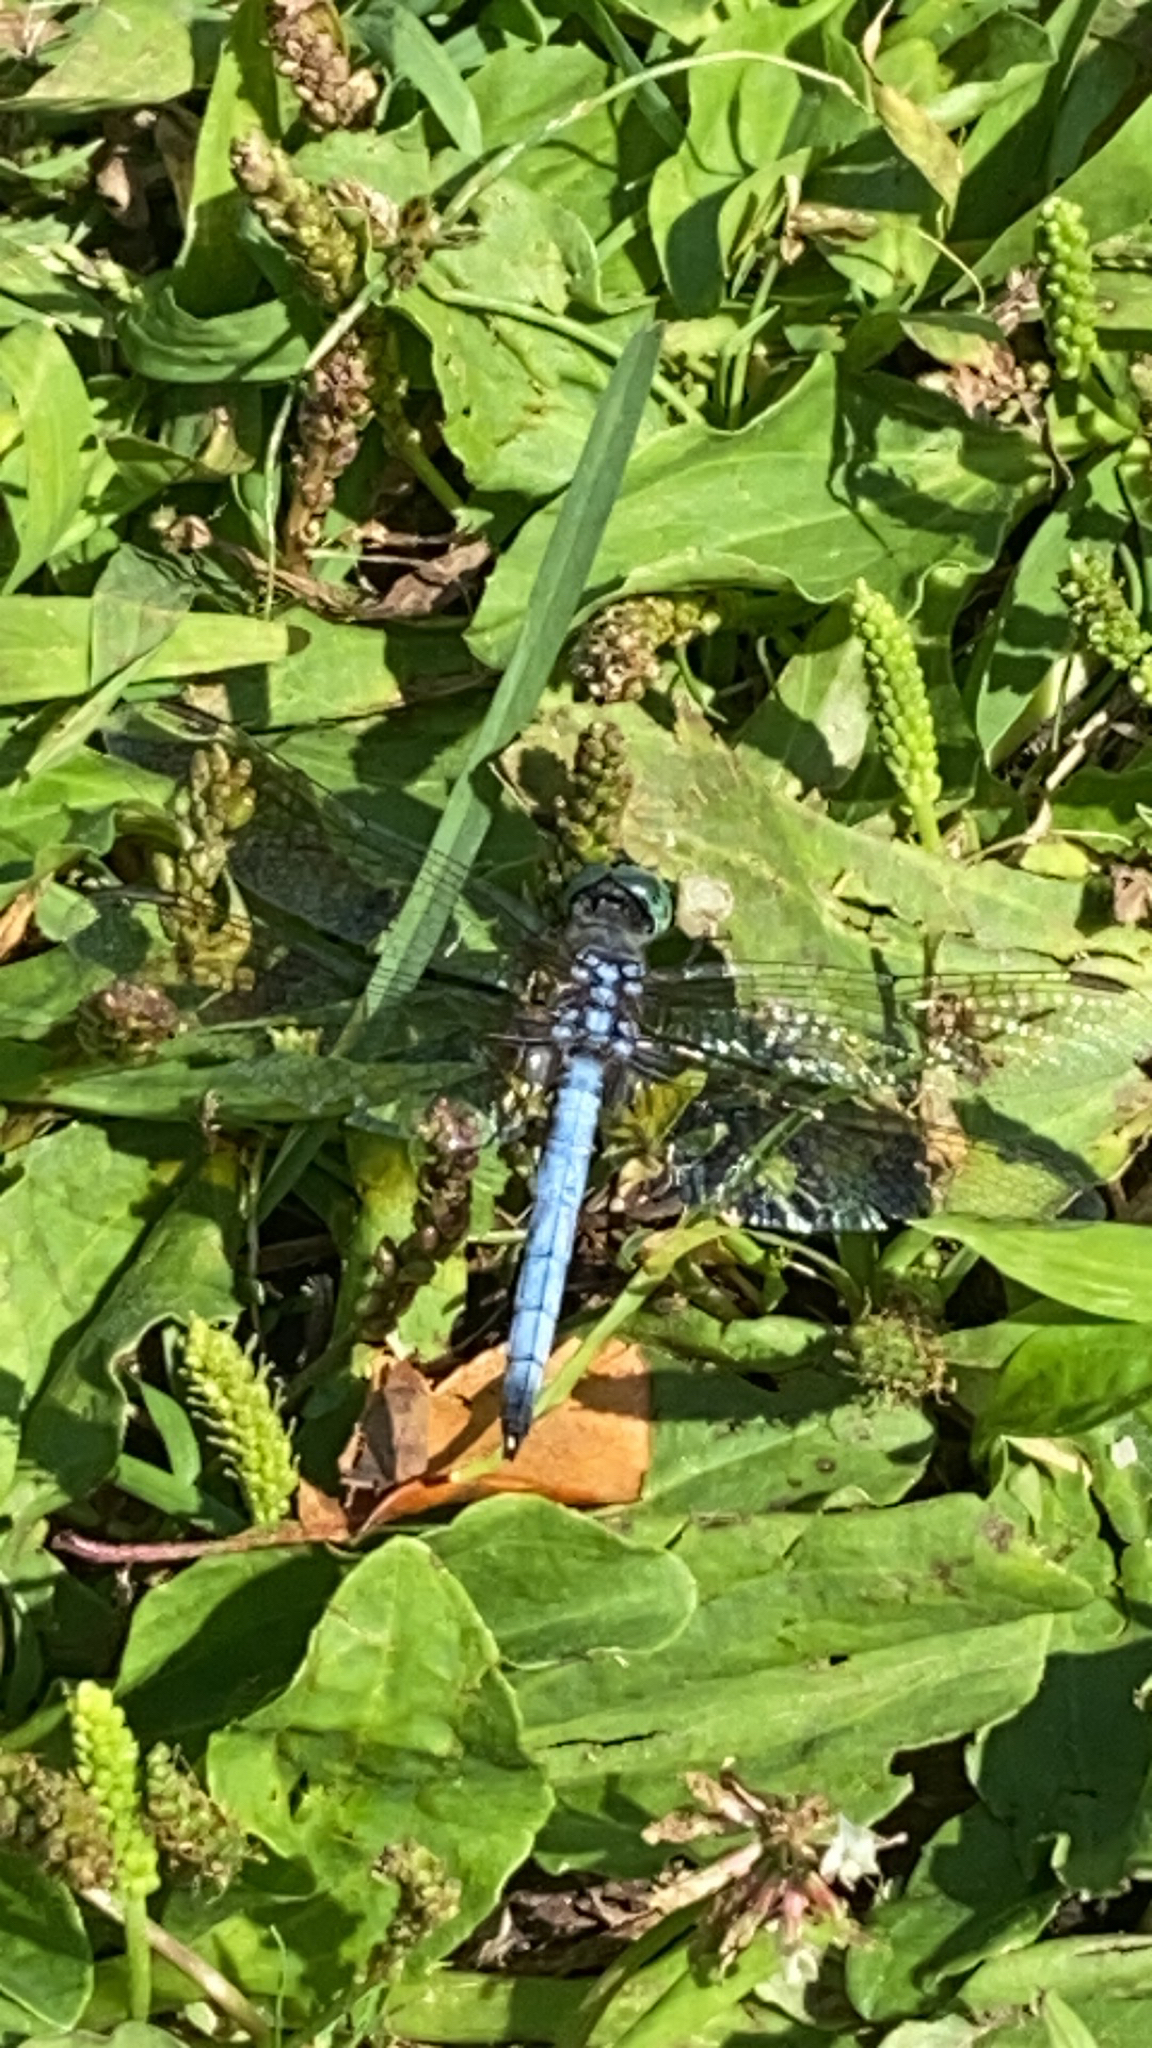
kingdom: Animalia
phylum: Arthropoda
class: Insecta
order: Odonata
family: Libellulidae
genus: Pachydiplax
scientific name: Pachydiplax longipennis
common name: Blue dasher
